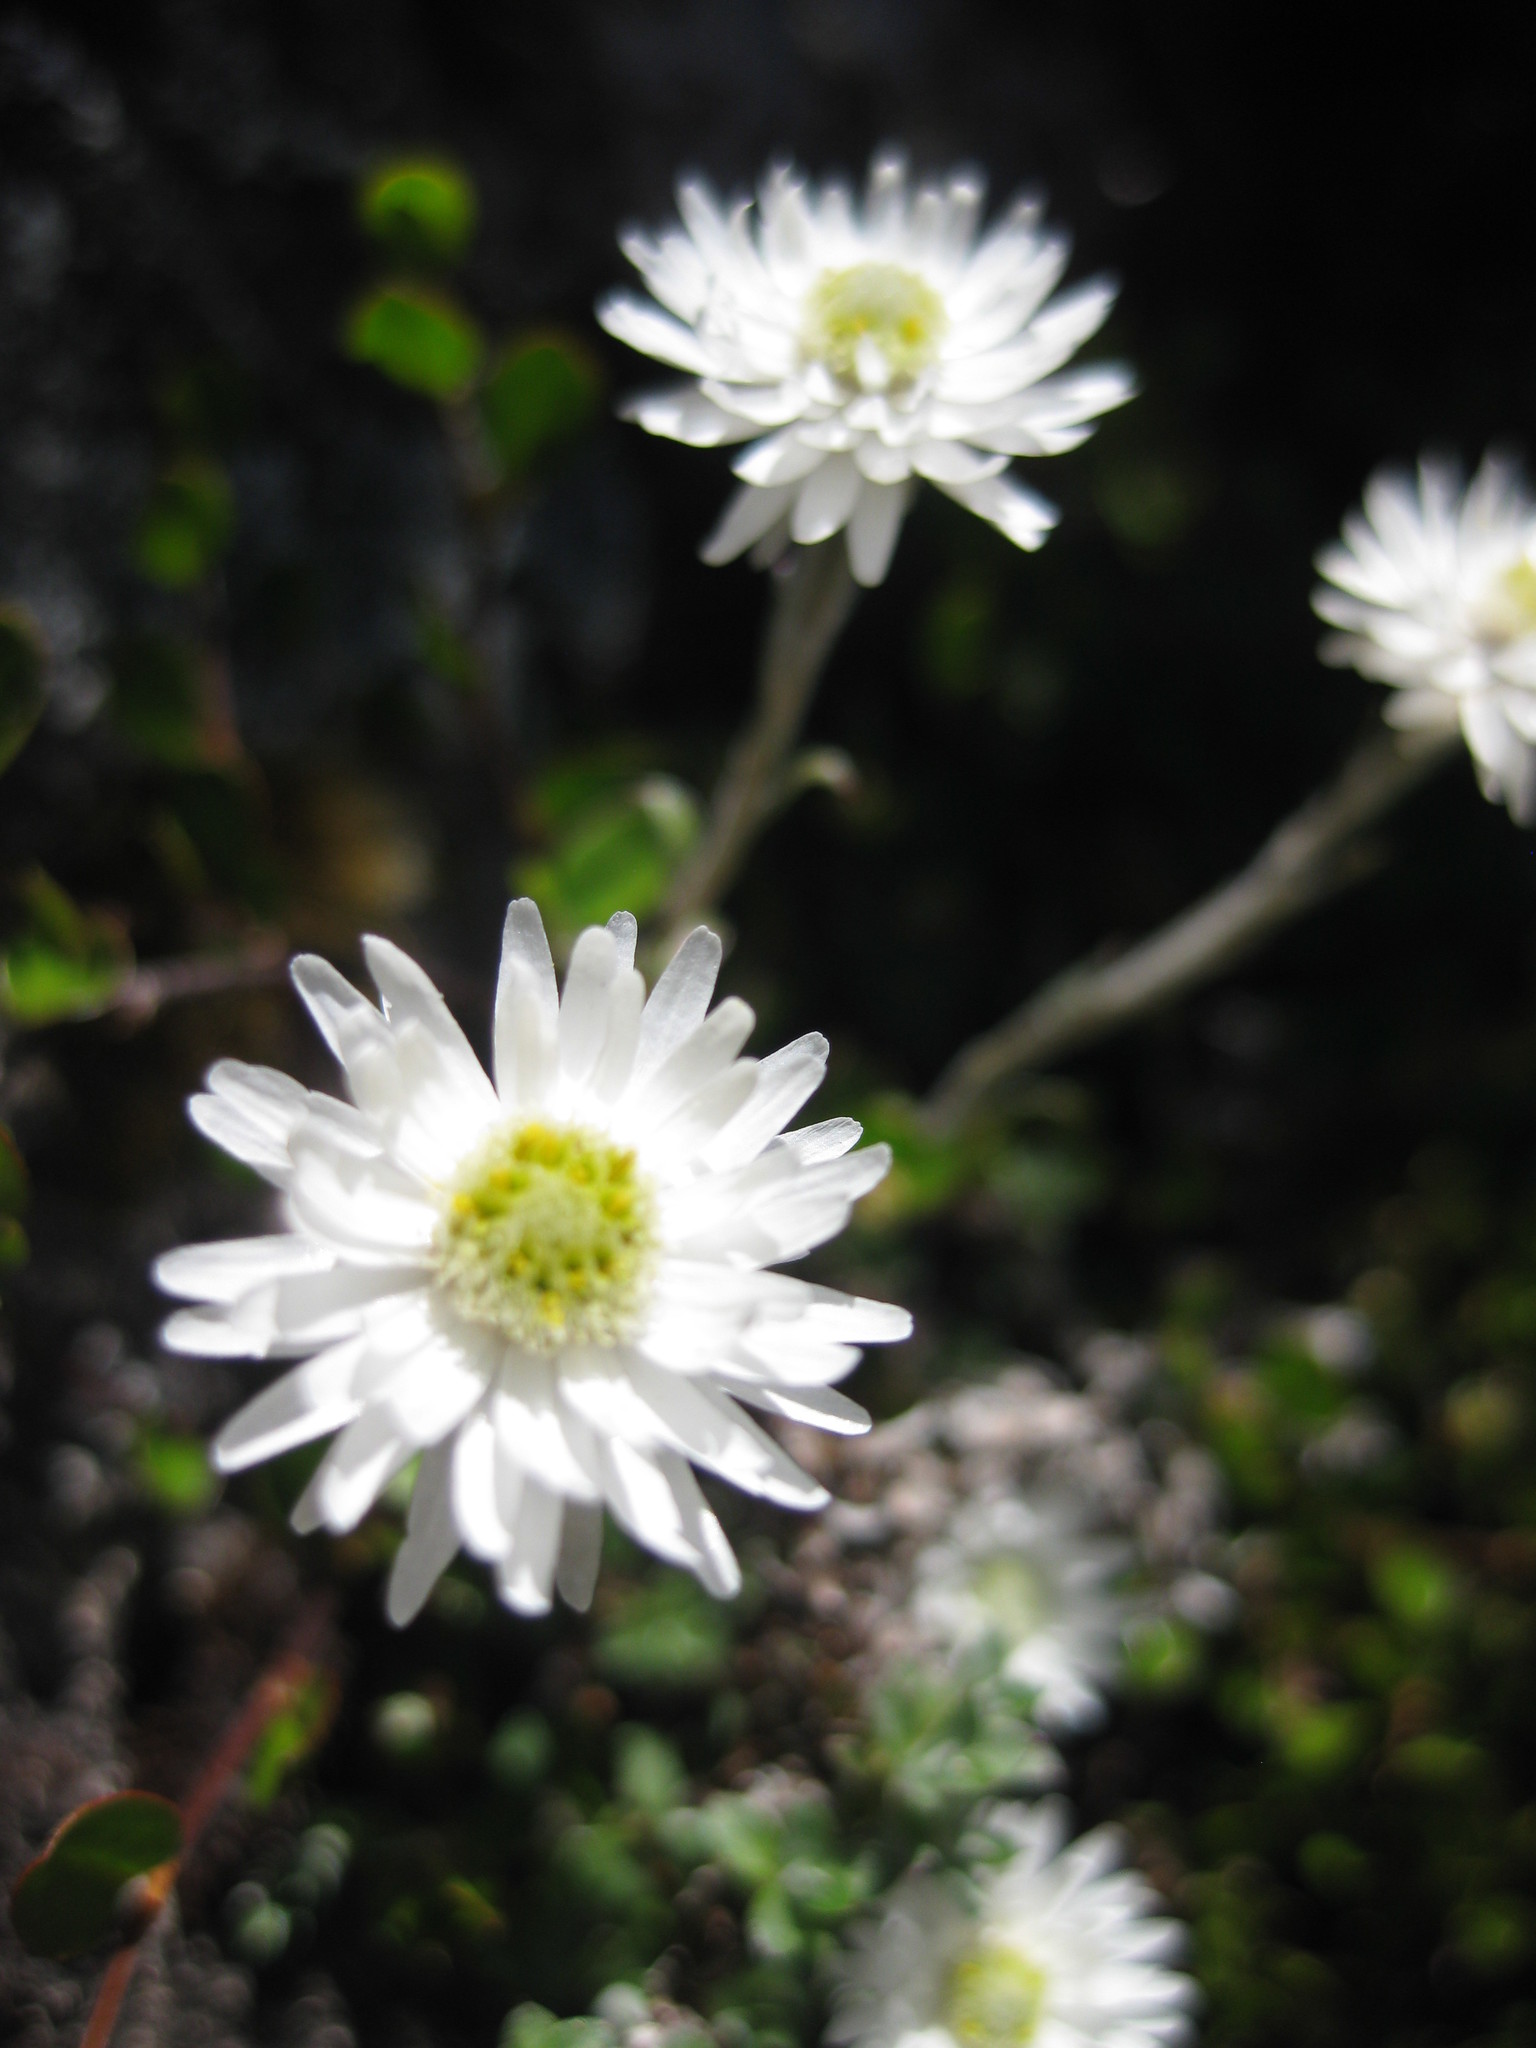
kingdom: Plantae
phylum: Tracheophyta
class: Magnoliopsida
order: Asterales
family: Asteraceae
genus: Anaphalioides
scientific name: Anaphalioides bellidioides
